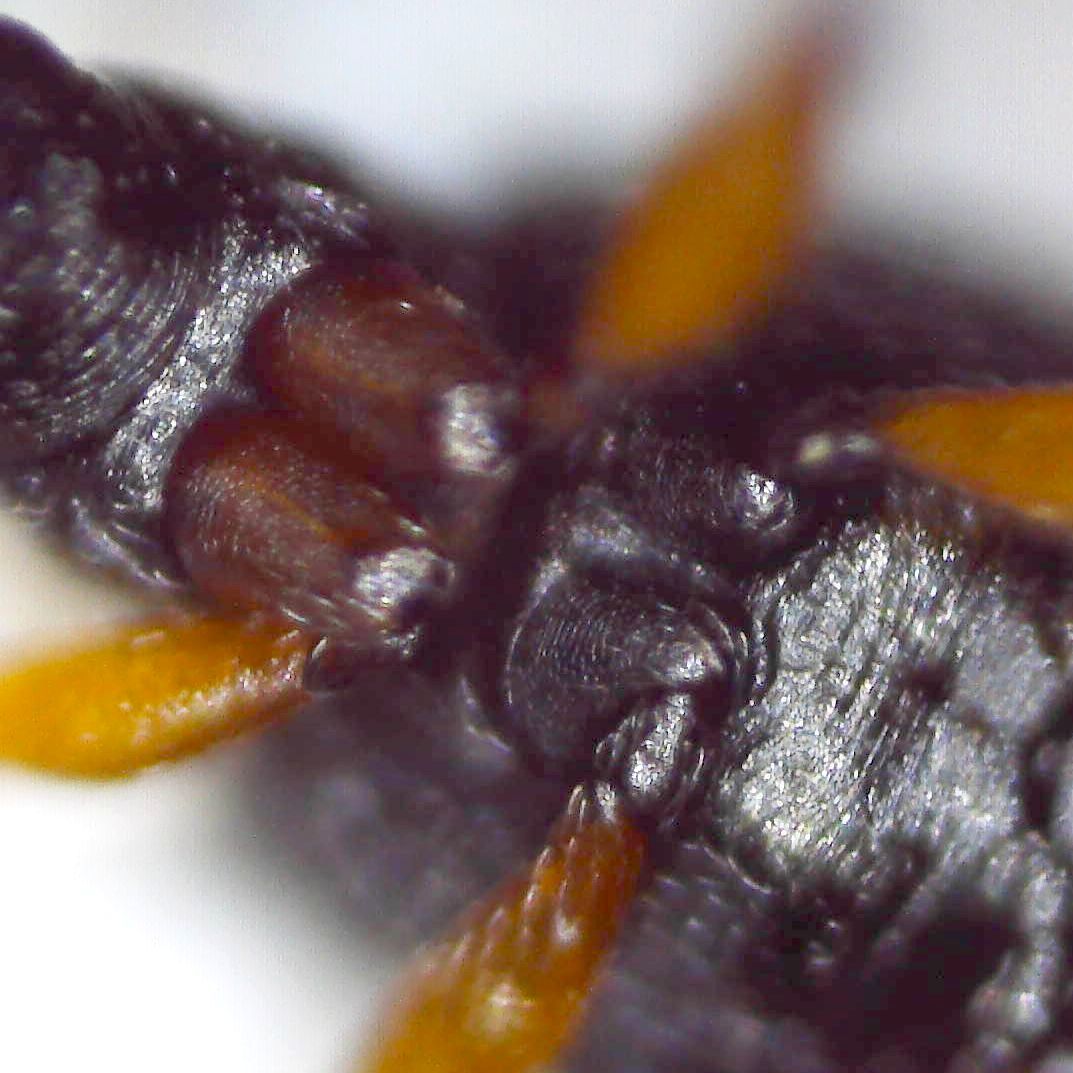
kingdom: Animalia
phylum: Arthropoda
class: Insecta
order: Coleoptera
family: Apionidae
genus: Protapion
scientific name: Protapion trifolii
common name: Red clover seed weevil
